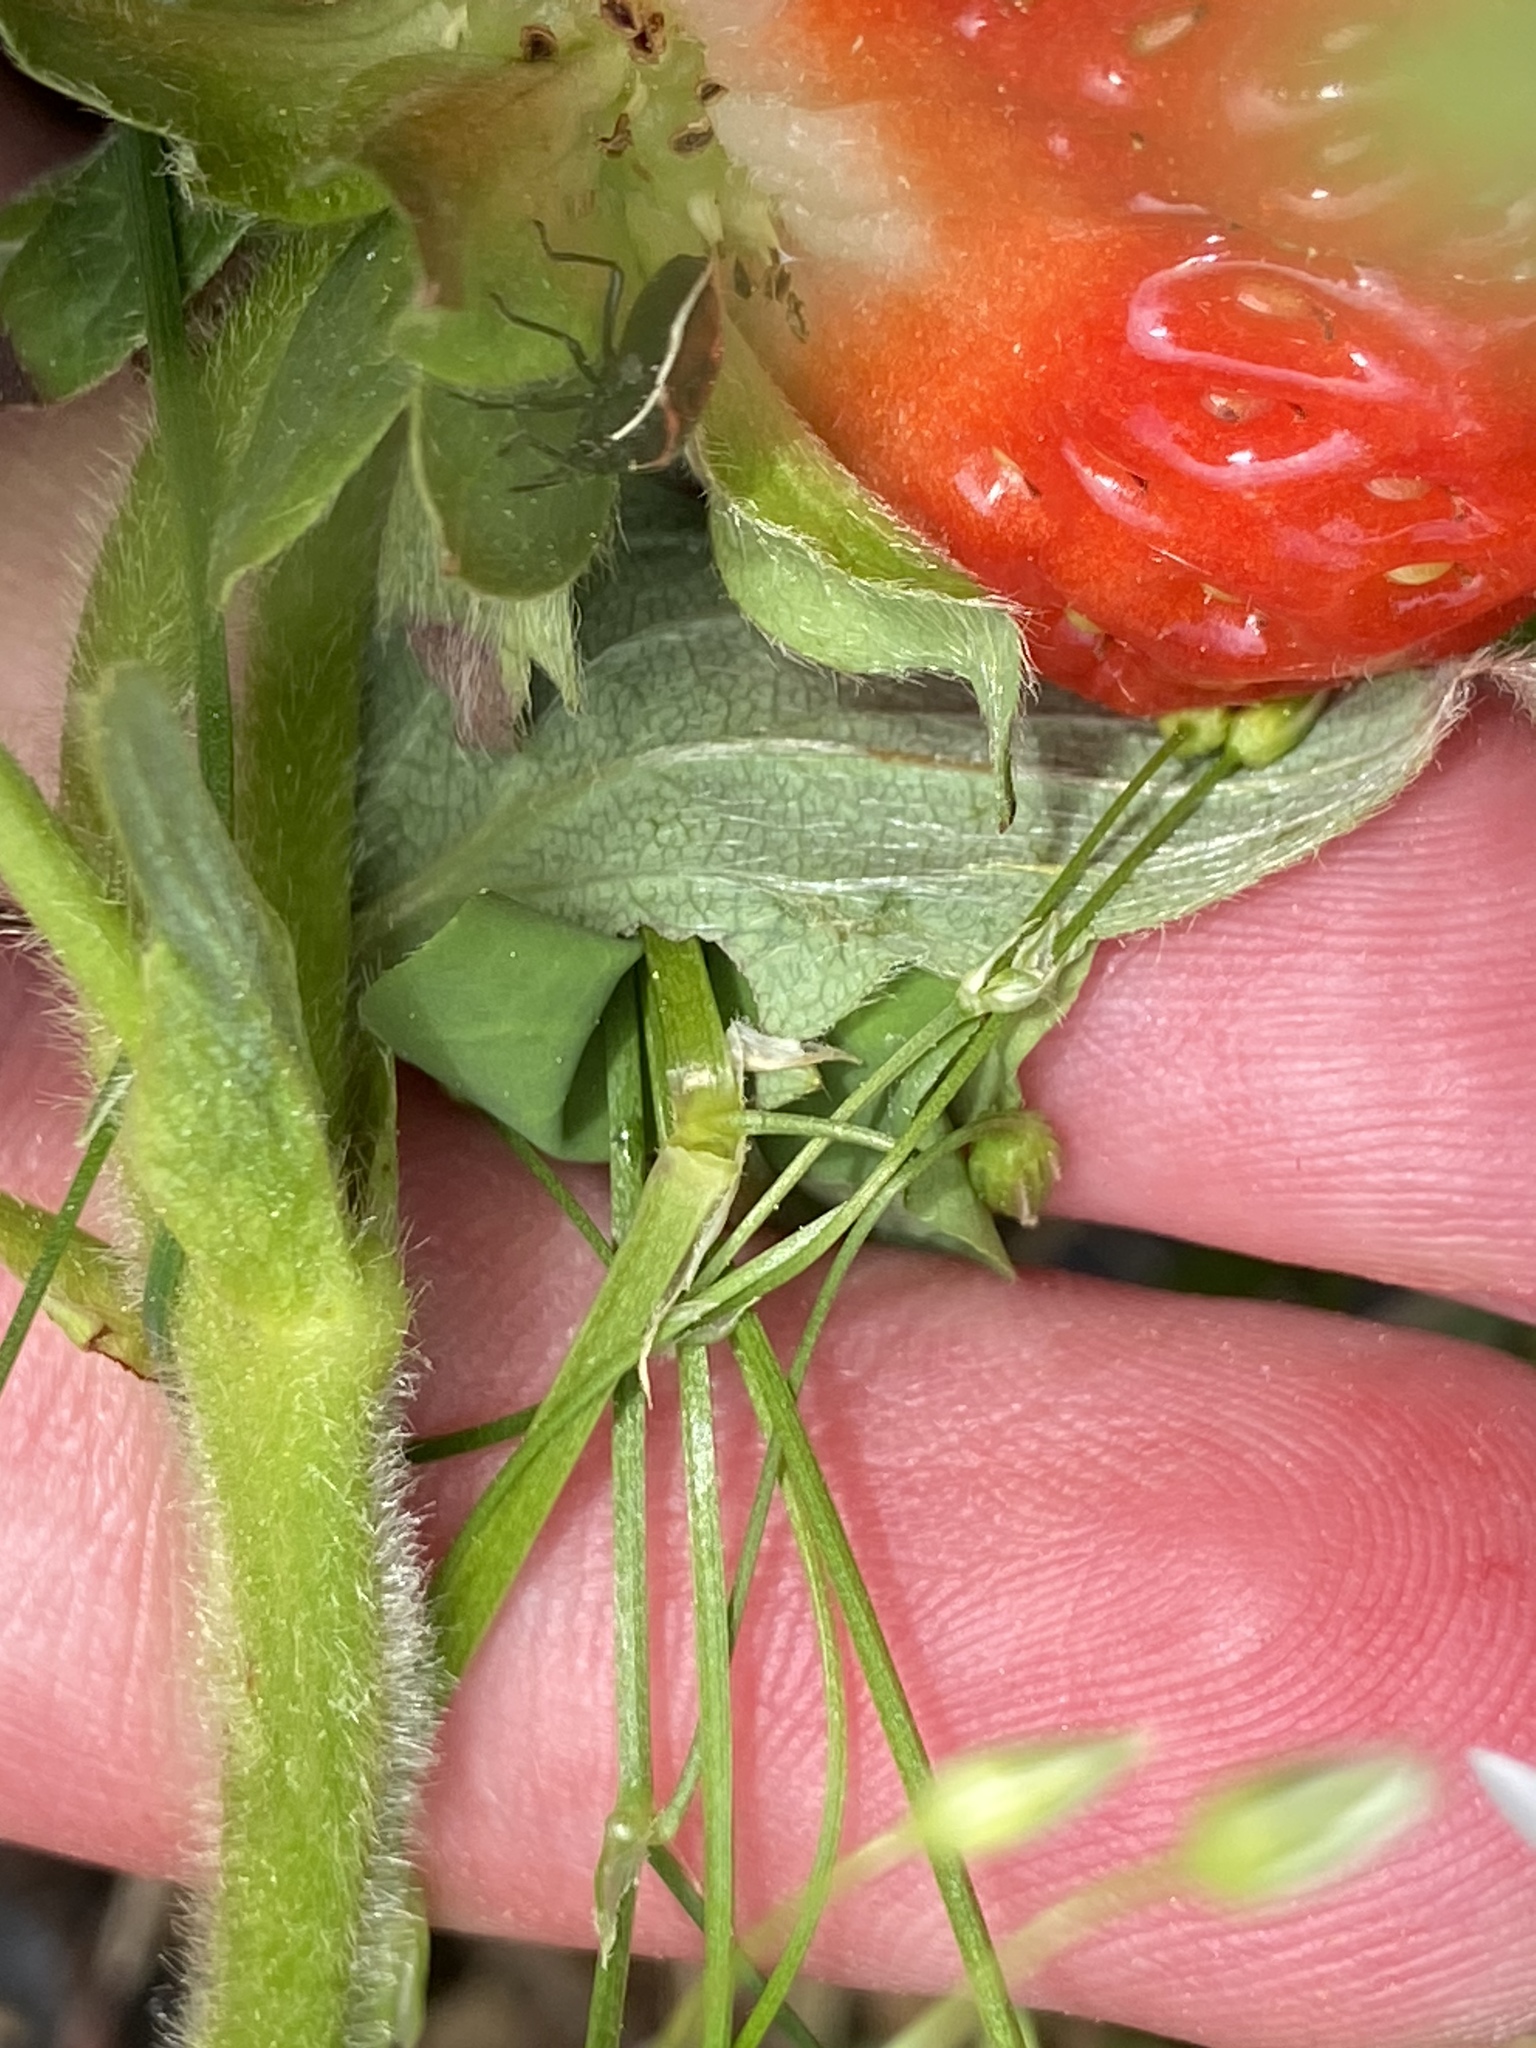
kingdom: Animalia
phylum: Arthropoda
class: Insecta
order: Hemiptera
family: Pentatomidae
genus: Cosmopepla
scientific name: Cosmopepla lintneriana
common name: Twice-stabbed stink bug
